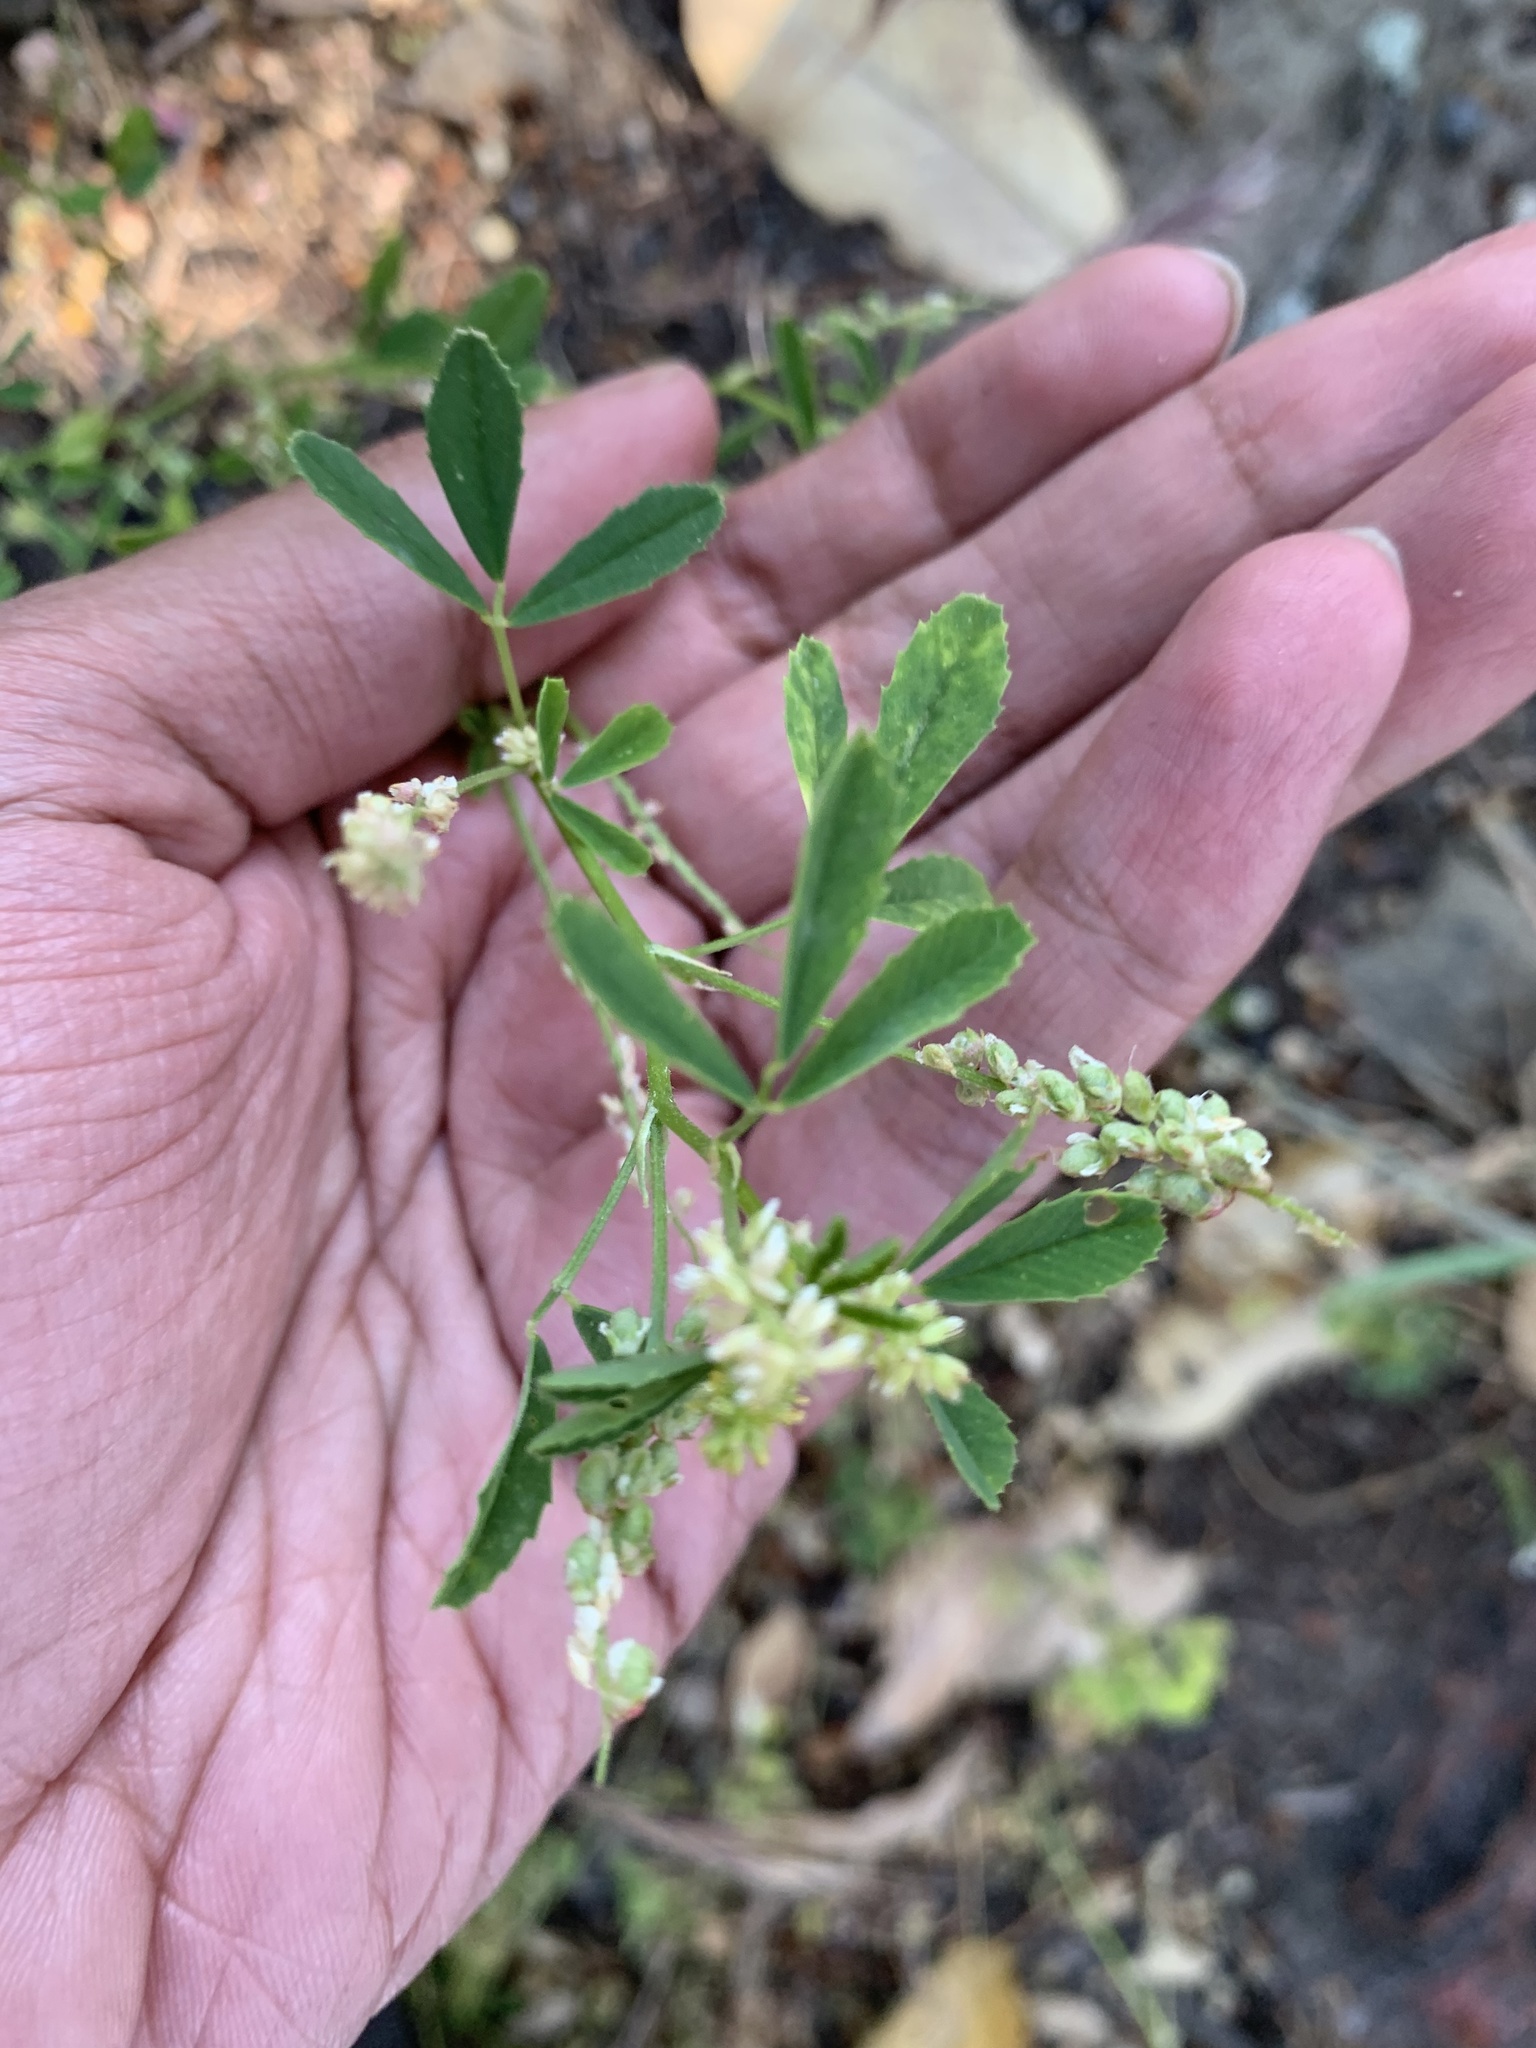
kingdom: Plantae
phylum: Tracheophyta
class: Magnoliopsida
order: Fabales
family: Fabaceae
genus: Melilotus
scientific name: Melilotus albus
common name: White melilot
